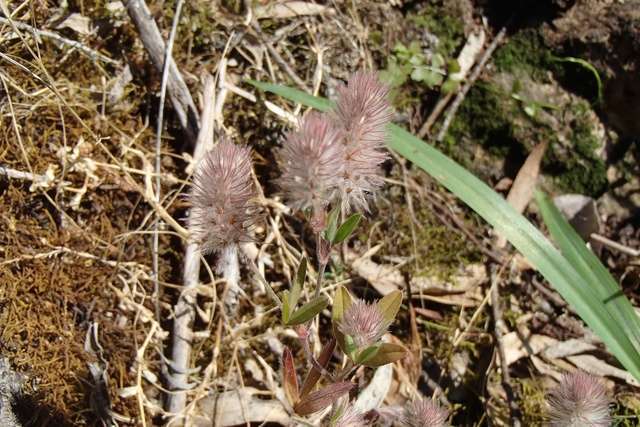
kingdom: Plantae
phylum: Tracheophyta
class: Magnoliopsida
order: Fabales
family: Fabaceae
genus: Trifolium
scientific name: Trifolium arvense
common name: Hare's-foot clover
